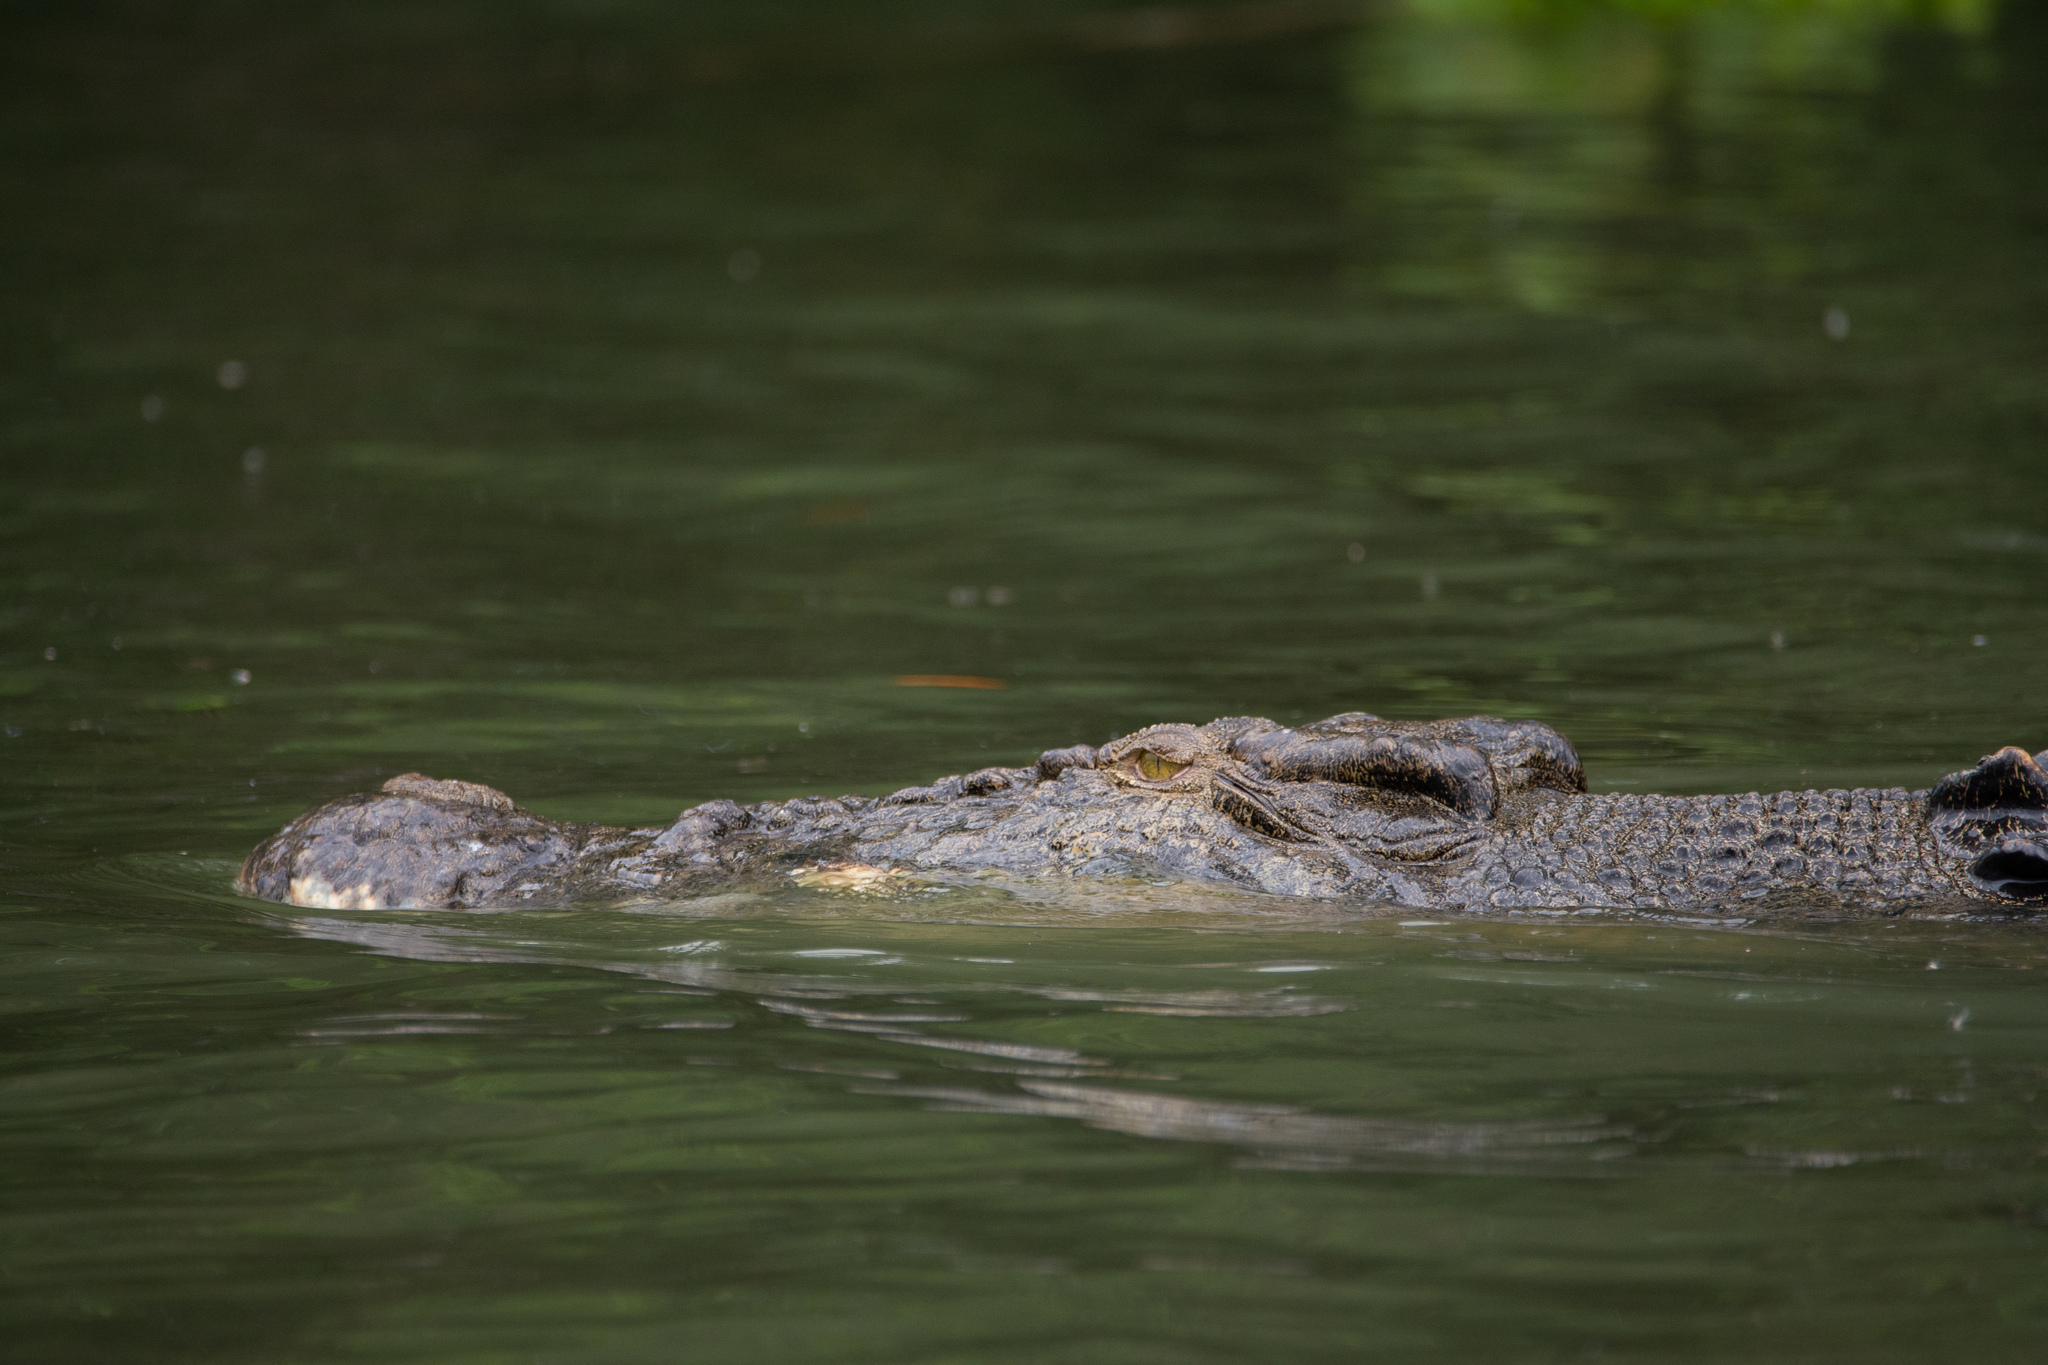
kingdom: Animalia
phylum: Chordata
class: Crocodylia
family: Crocodylidae
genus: Crocodylus
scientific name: Crocodylus porosus
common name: Saltwater crocodile
